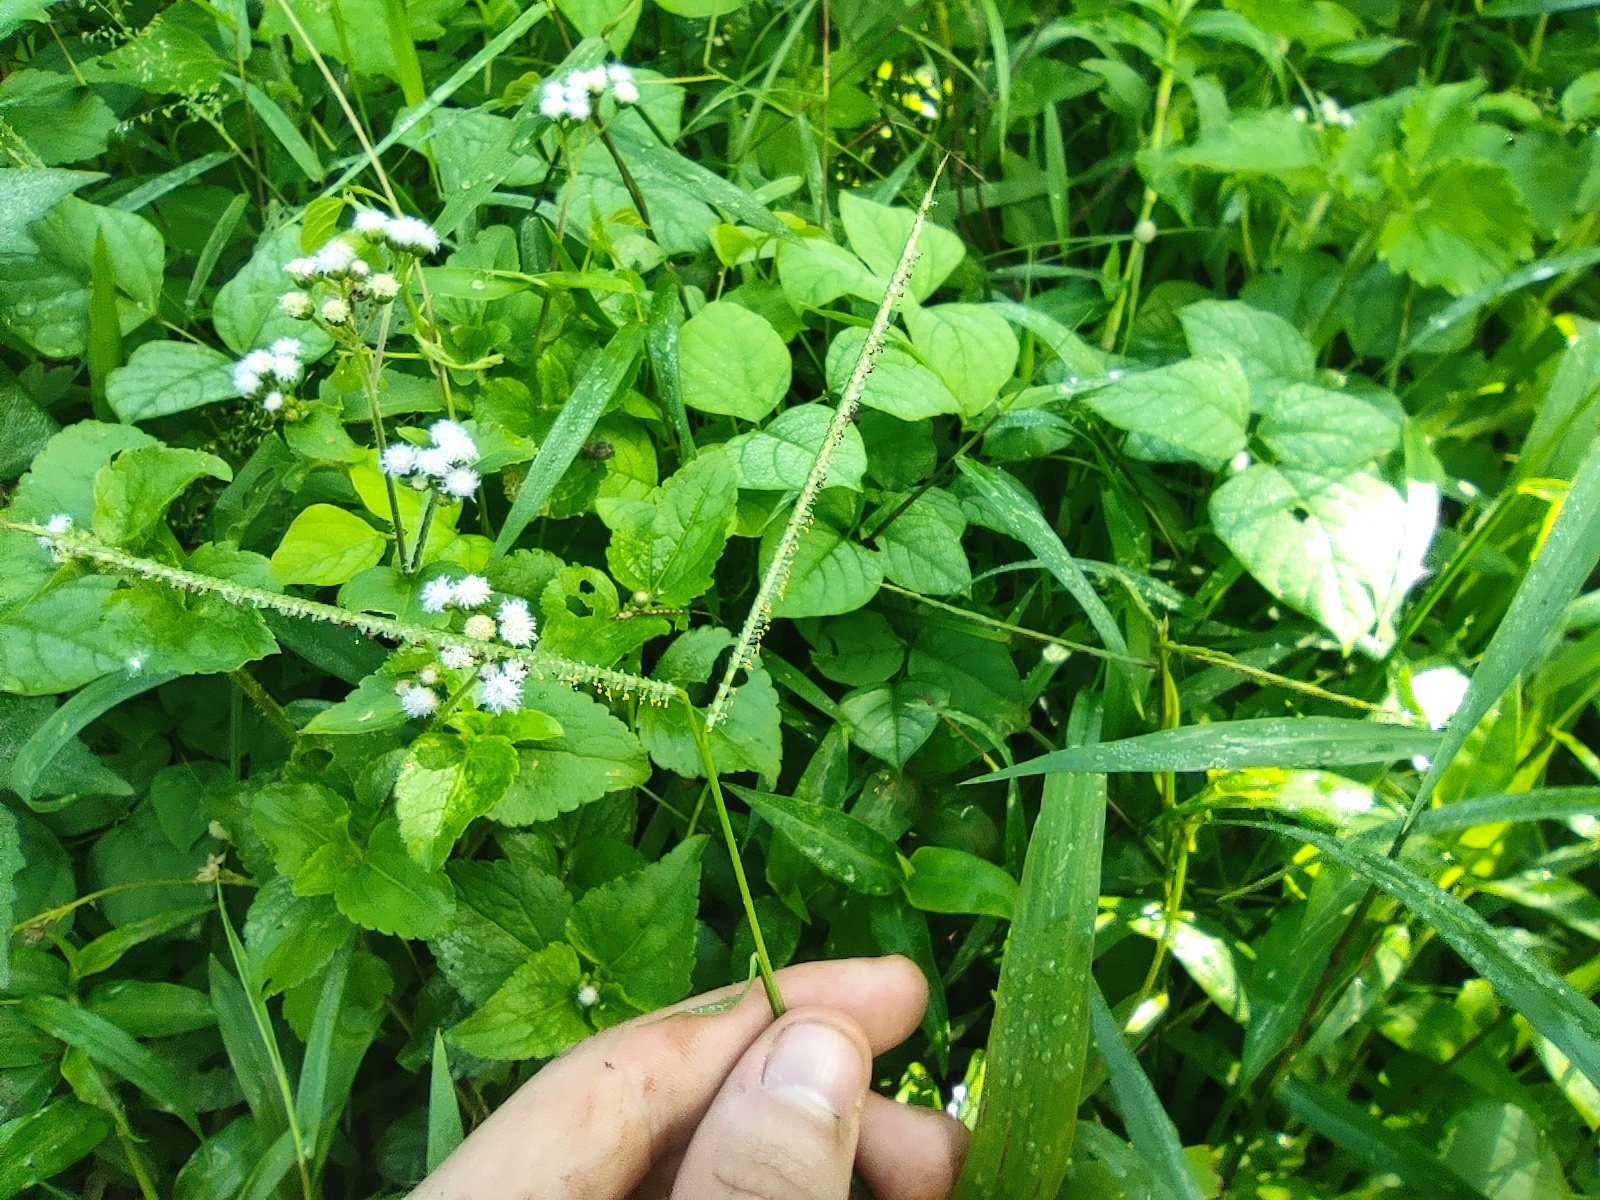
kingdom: Plantae
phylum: Tracheophyta
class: Liliopsida
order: Poales
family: Poaceae
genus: Paspalum
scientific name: Paspalum conjugatum
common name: Hilograss
